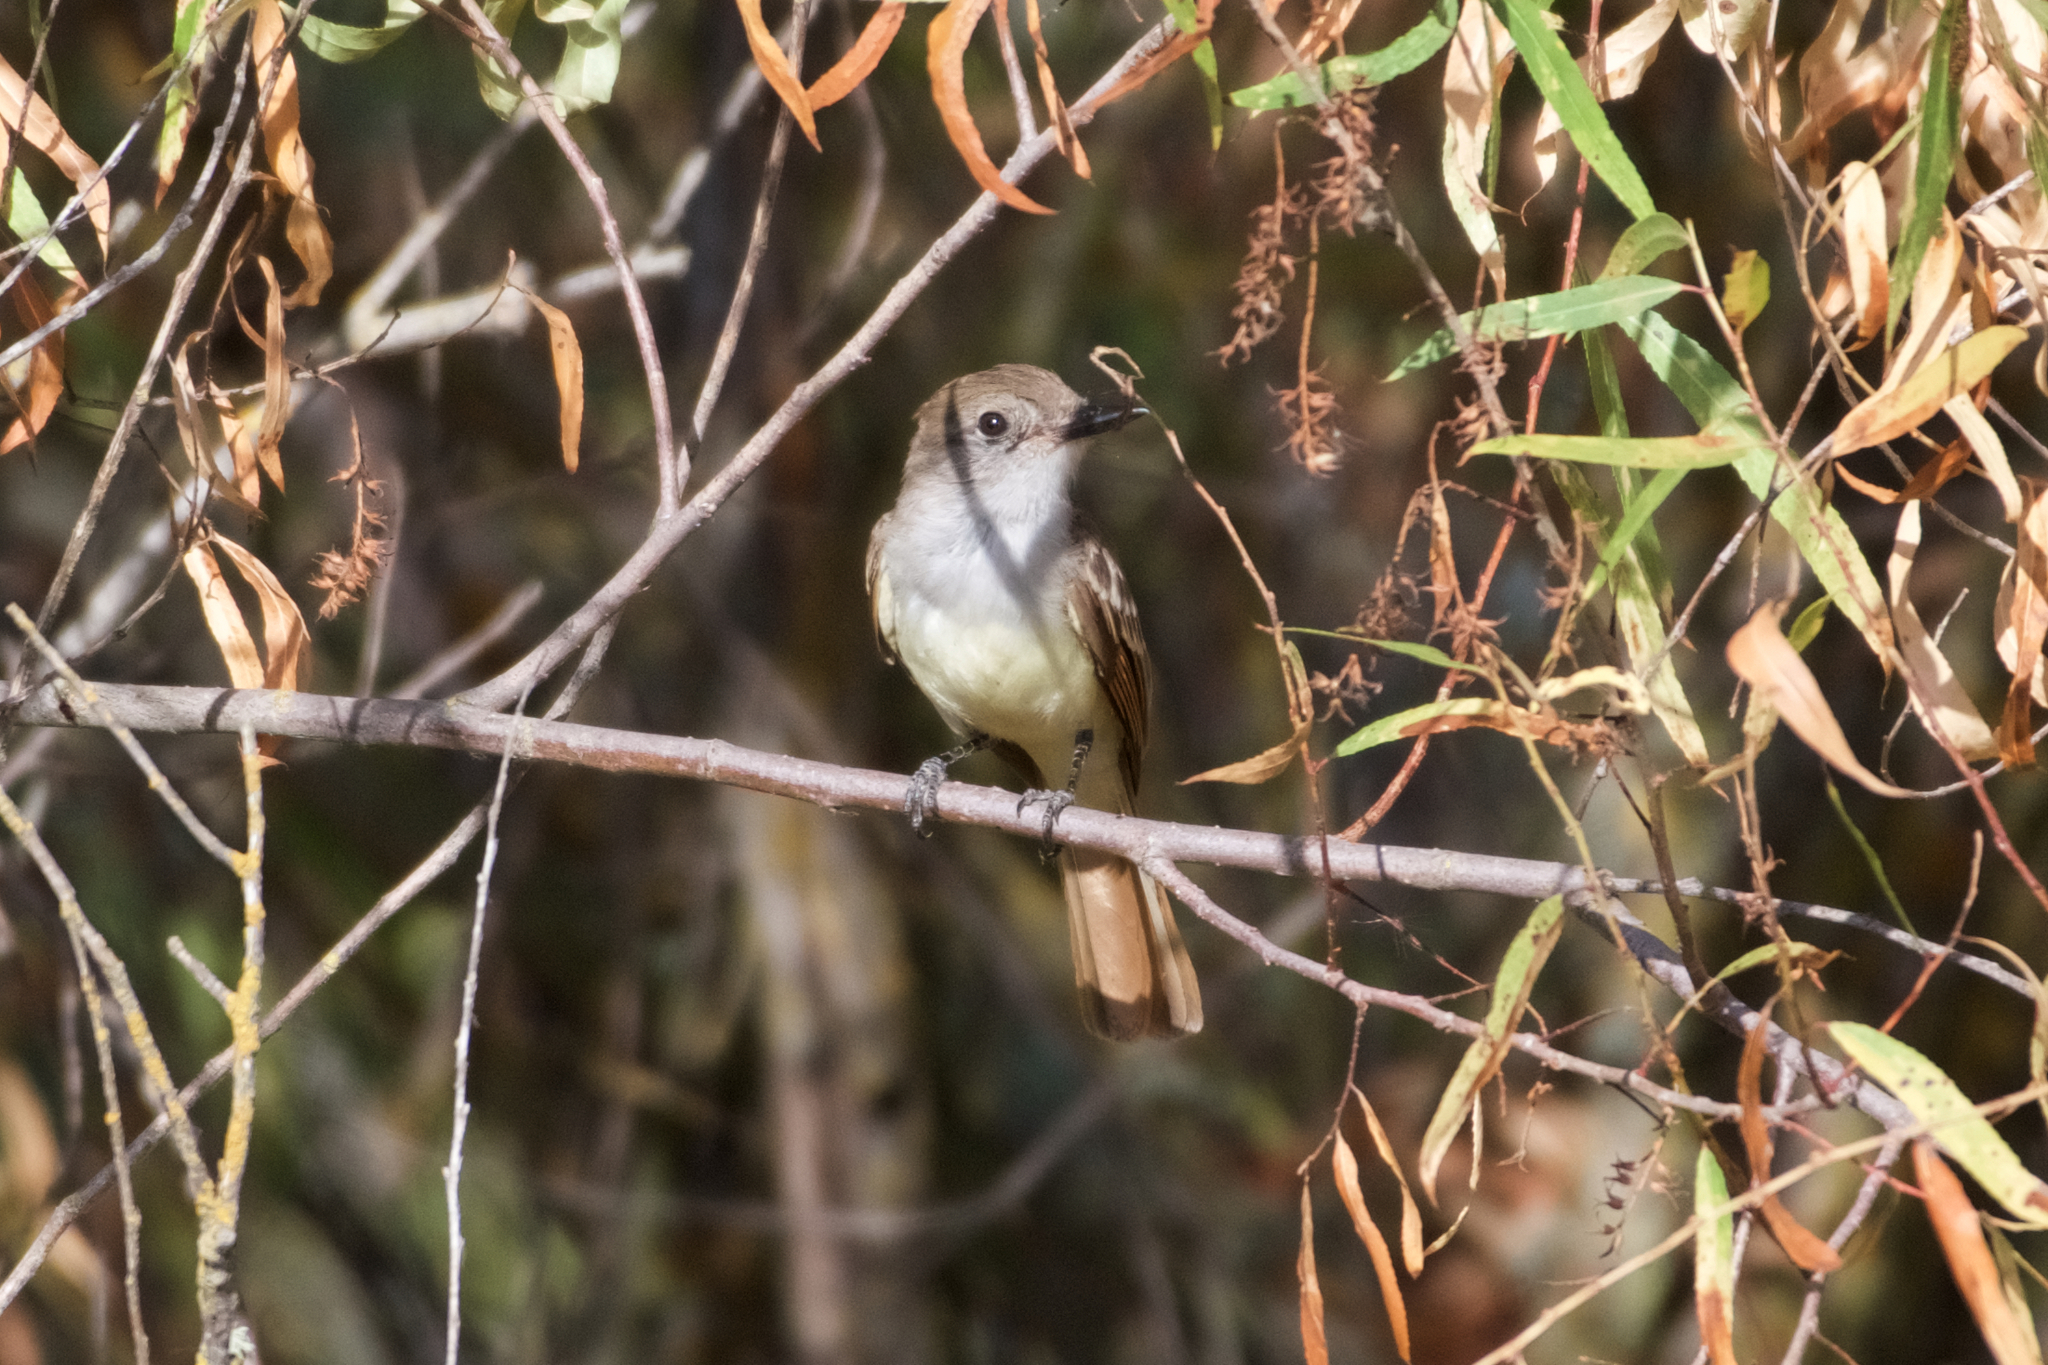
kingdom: Animalia
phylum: Chordata
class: Aves
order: Passeriformes
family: Tyrannidae
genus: Myiarchus
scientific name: Myiarchus cinerascens
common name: Ash-throated flycatcher
